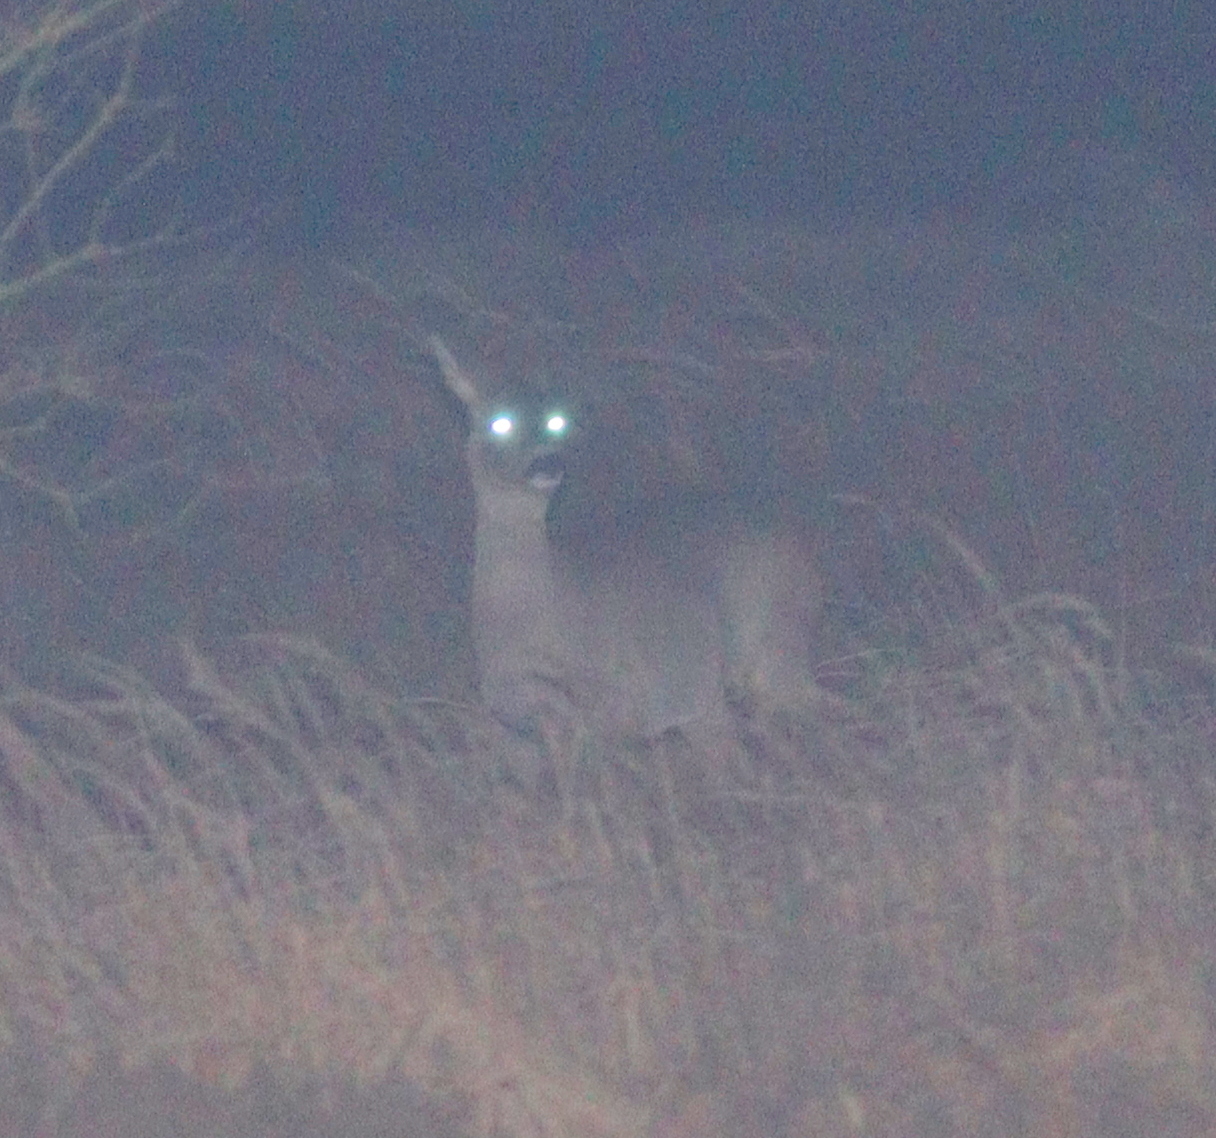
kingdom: Animalia
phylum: Chordata
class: Mammalia
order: Artiodactyla
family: Cervidae
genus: Capreolus
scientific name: Capreolus capreolus
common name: Western roe deer
